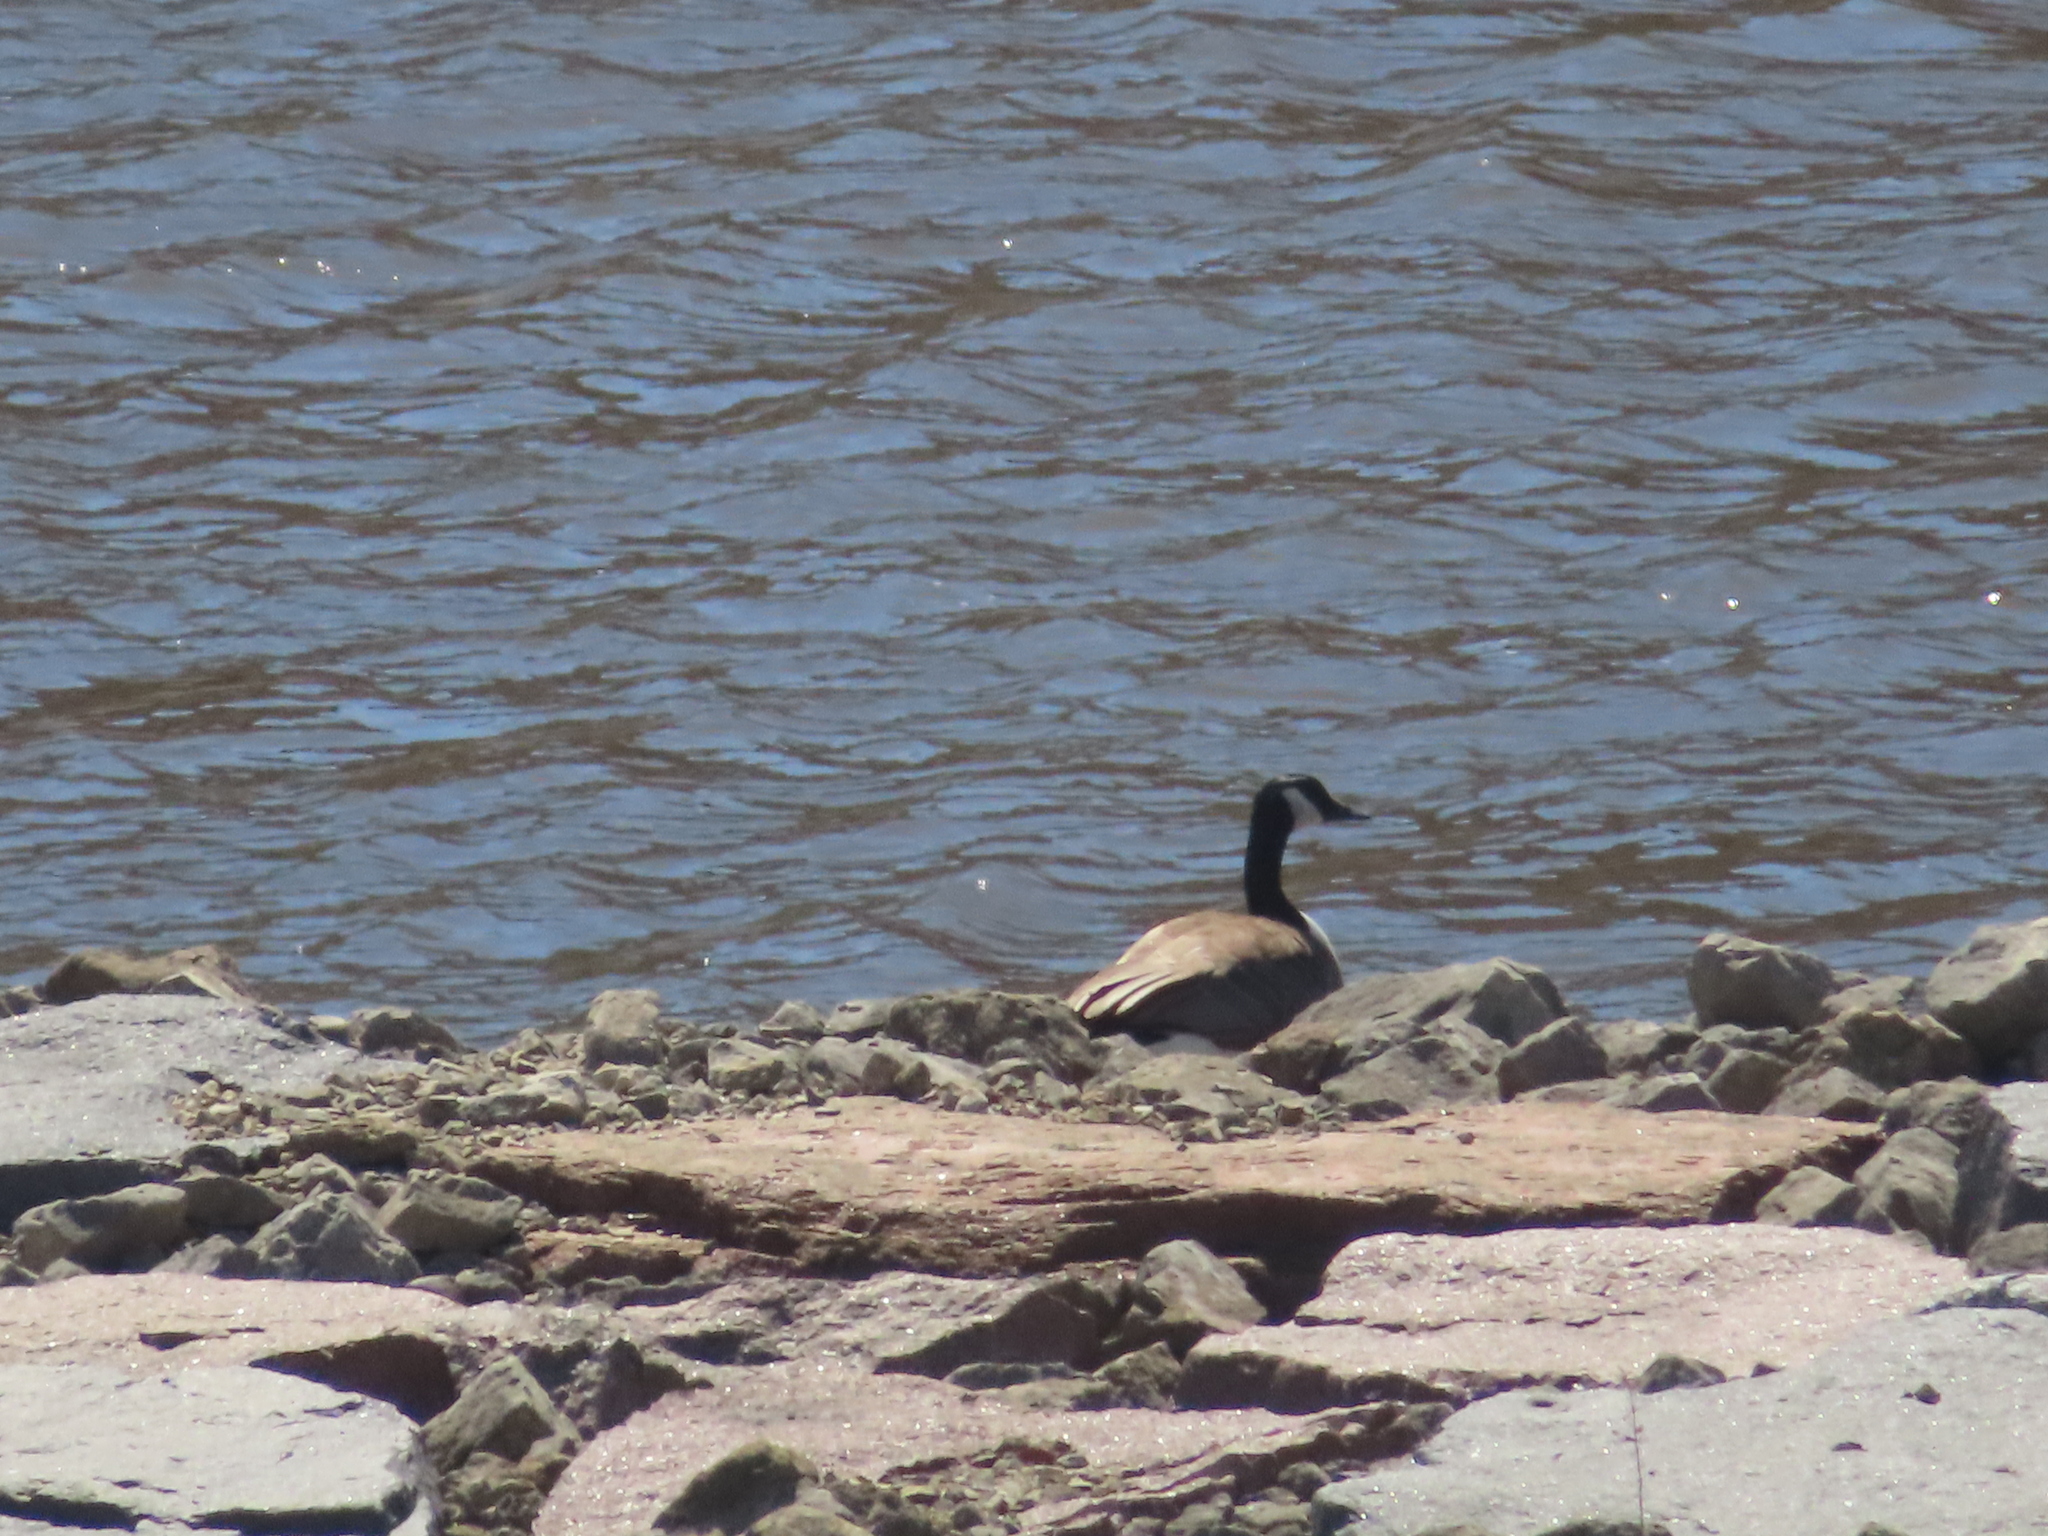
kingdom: Animalia
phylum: Chordata
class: Aves
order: Anseriformes
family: Anatidae
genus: Branta
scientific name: Branta canadensis
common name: Canada goose
